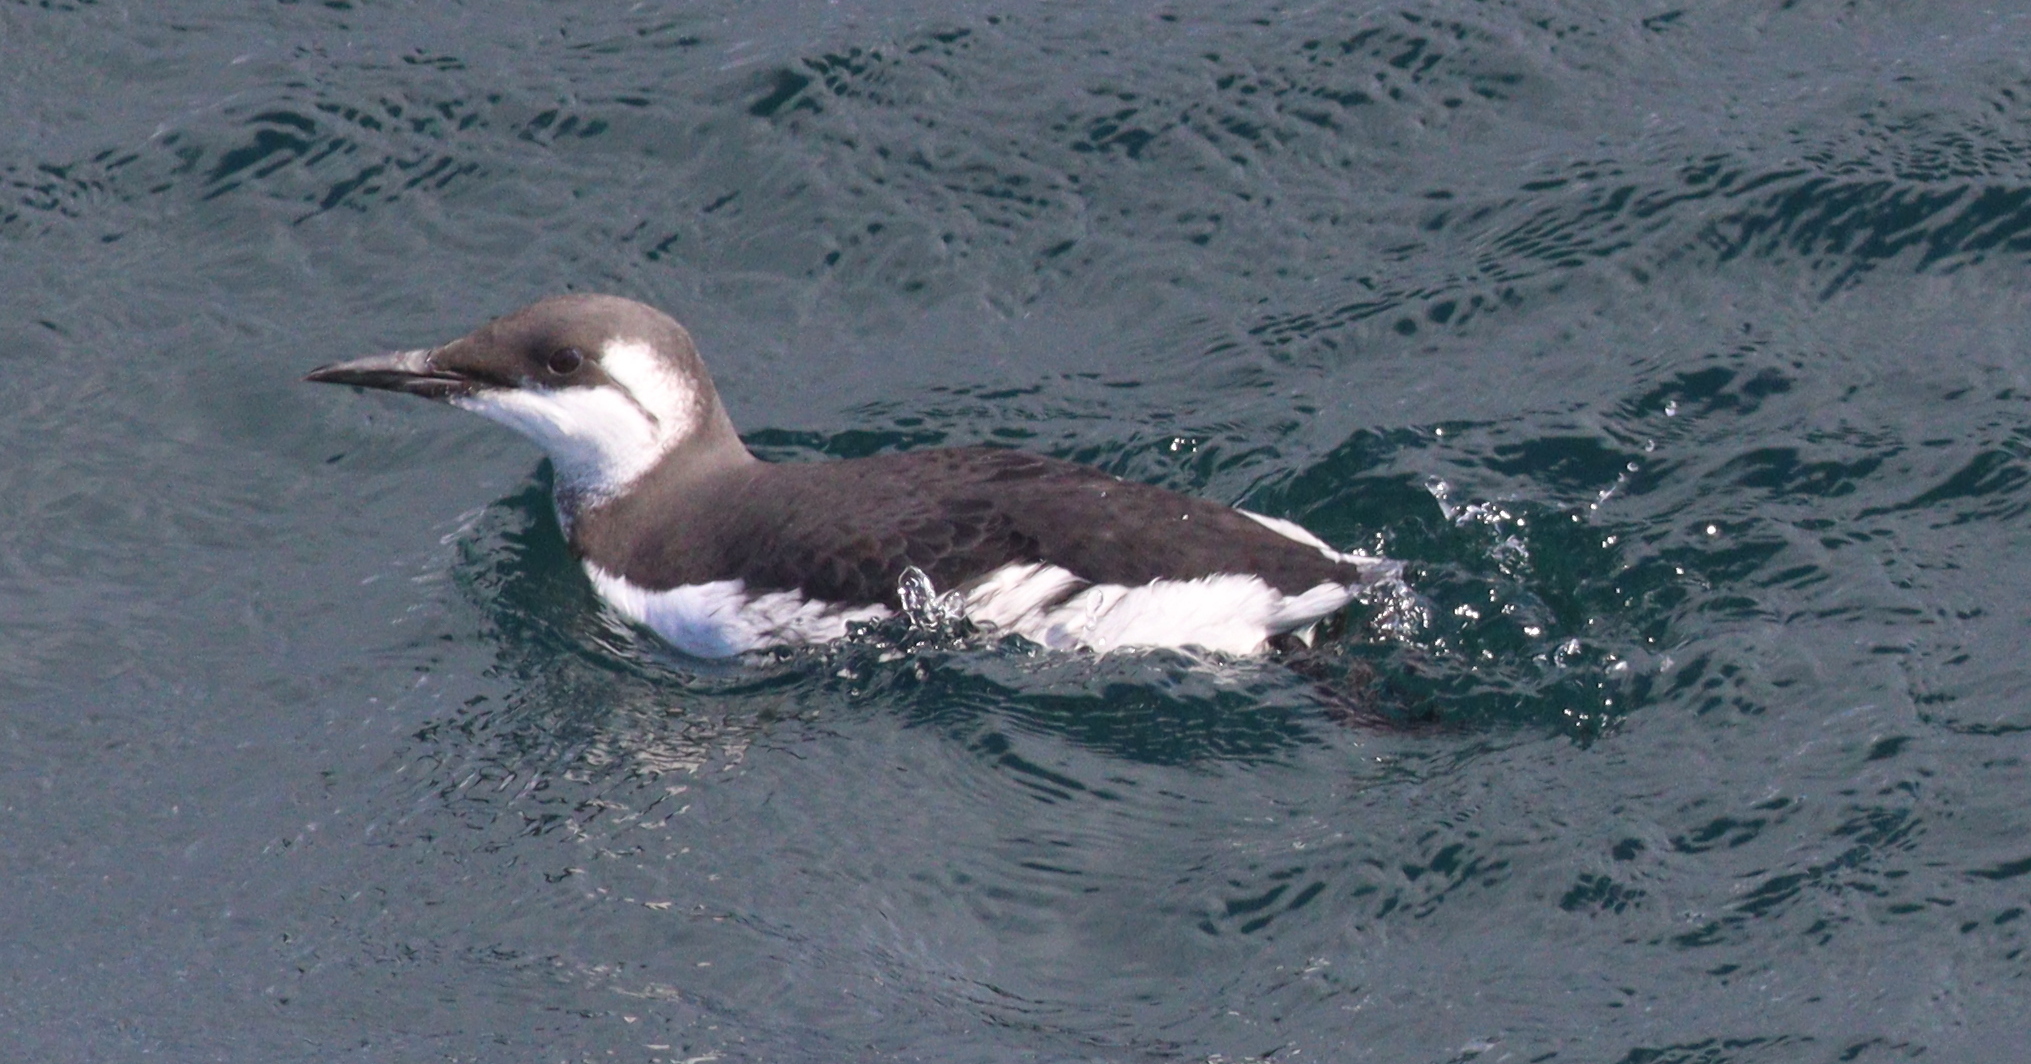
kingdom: Animalia
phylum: Chordata
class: Aves
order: Charadriiformes
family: Alcidae
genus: Uria
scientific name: Uria aalge
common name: Common murre
